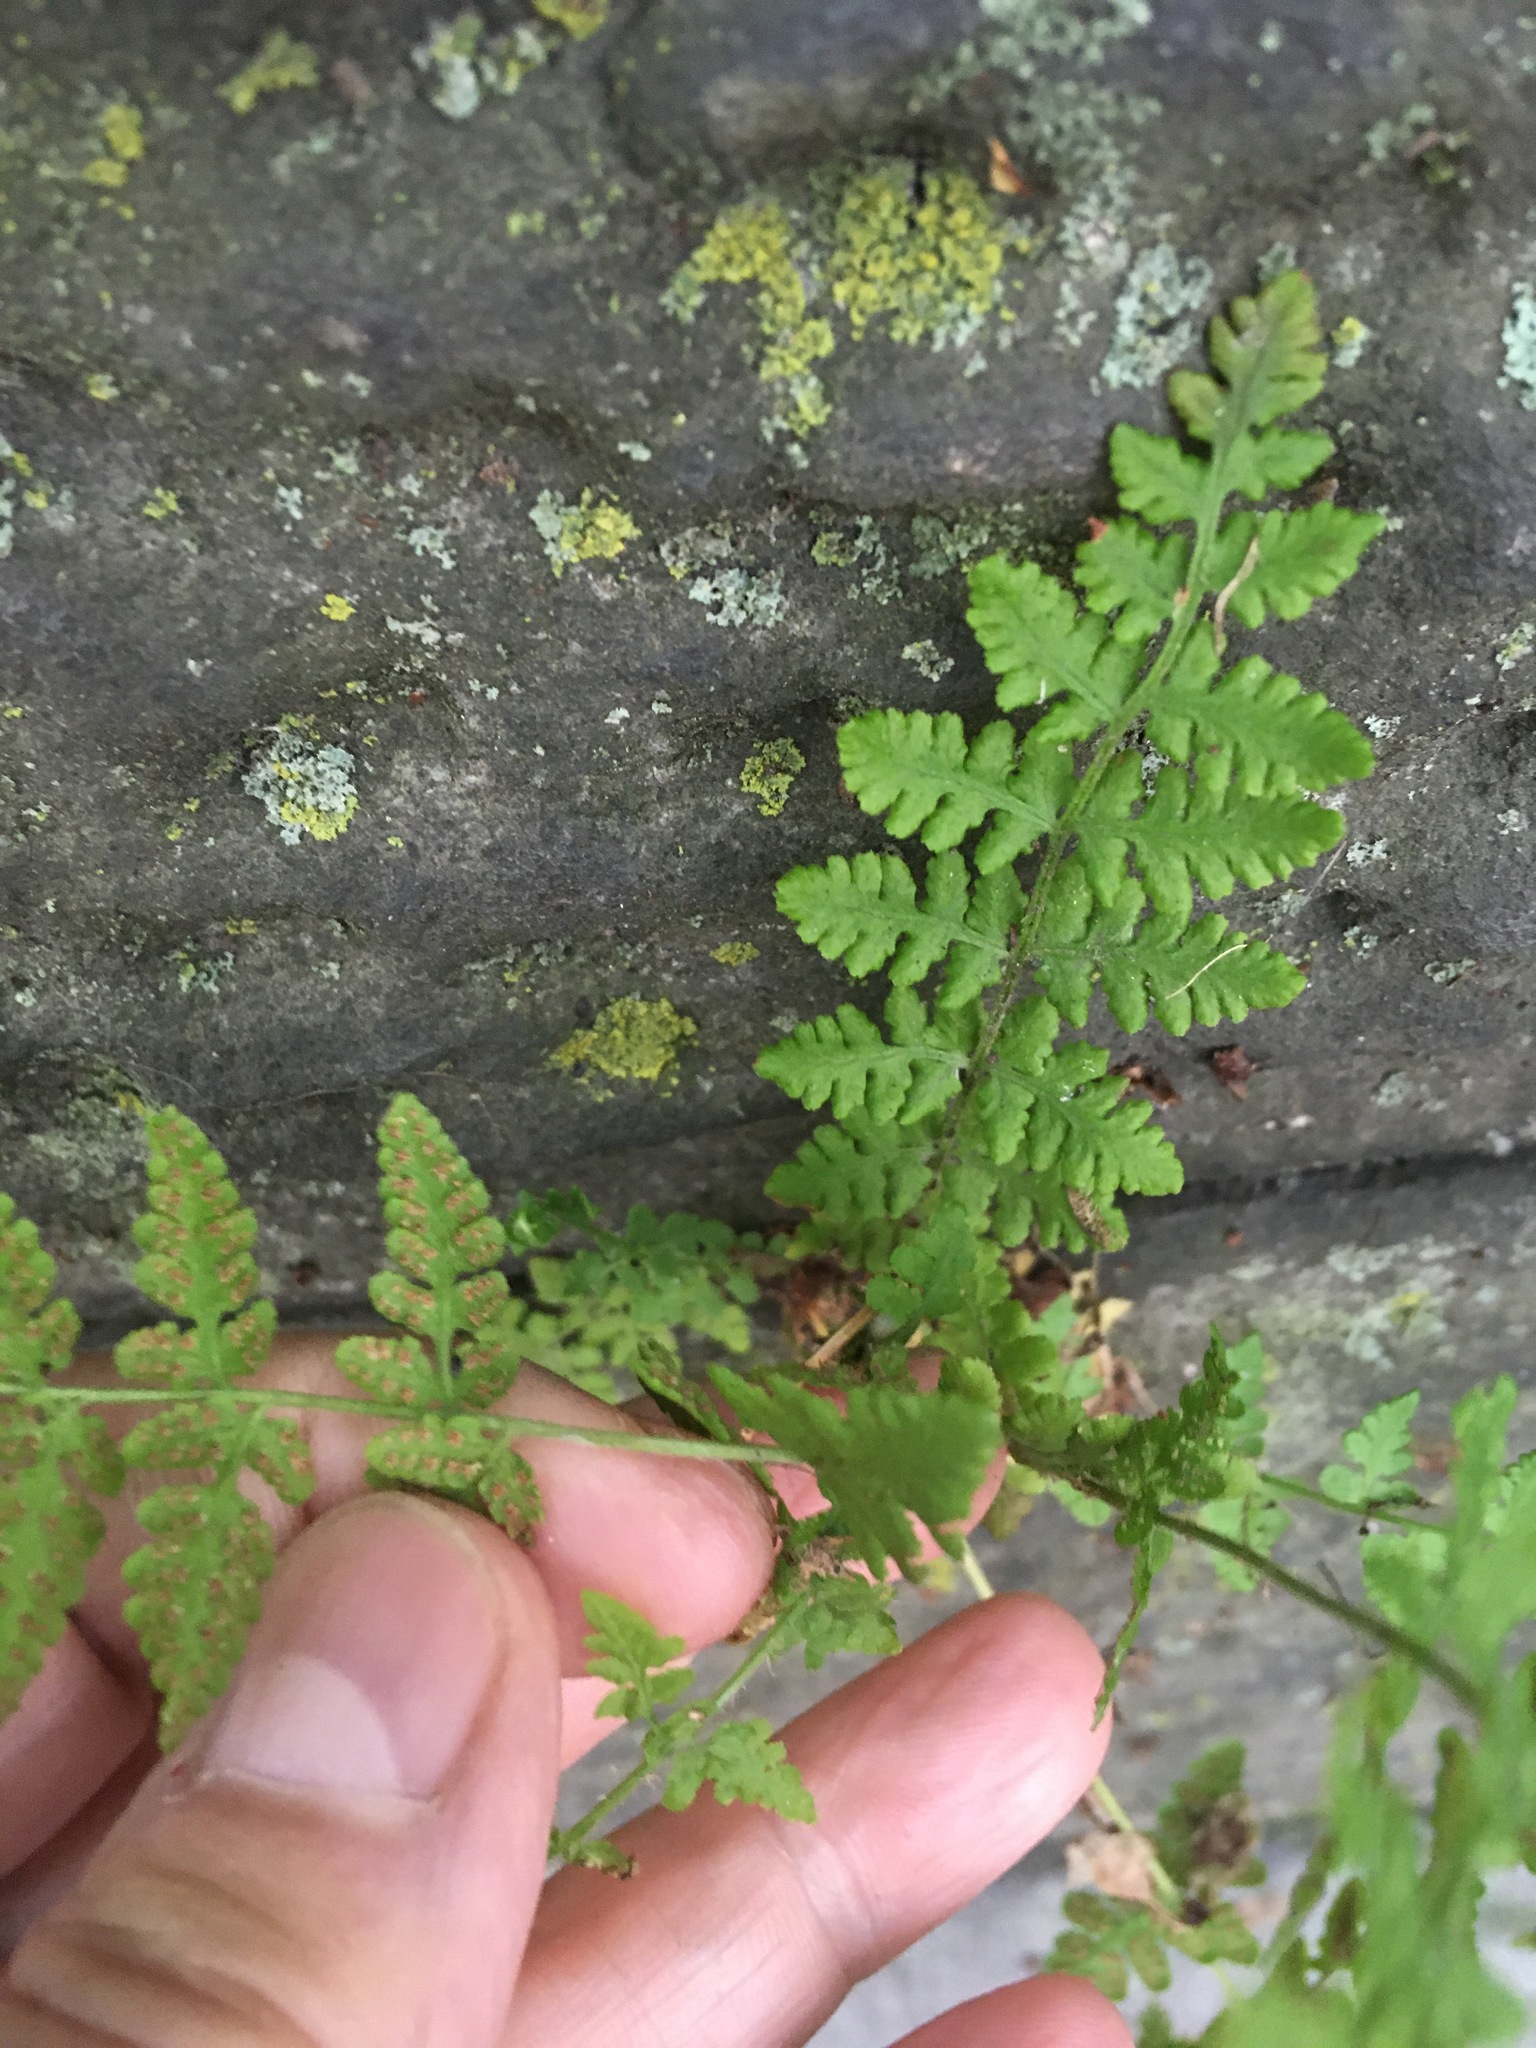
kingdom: Plantae
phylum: Tracheophyta
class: Polypodiopsida
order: Polypodiales
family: Woodsiaceae
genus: Physematium
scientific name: Physematium obtusum
